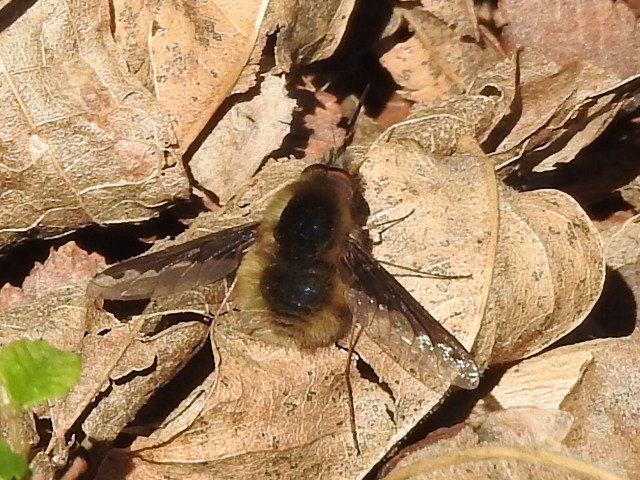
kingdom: Animalia
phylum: Arthropoda
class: Insecta
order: Diptera
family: Bombyliidae
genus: Bombylius
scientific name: Bombylius major
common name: Bee fly
